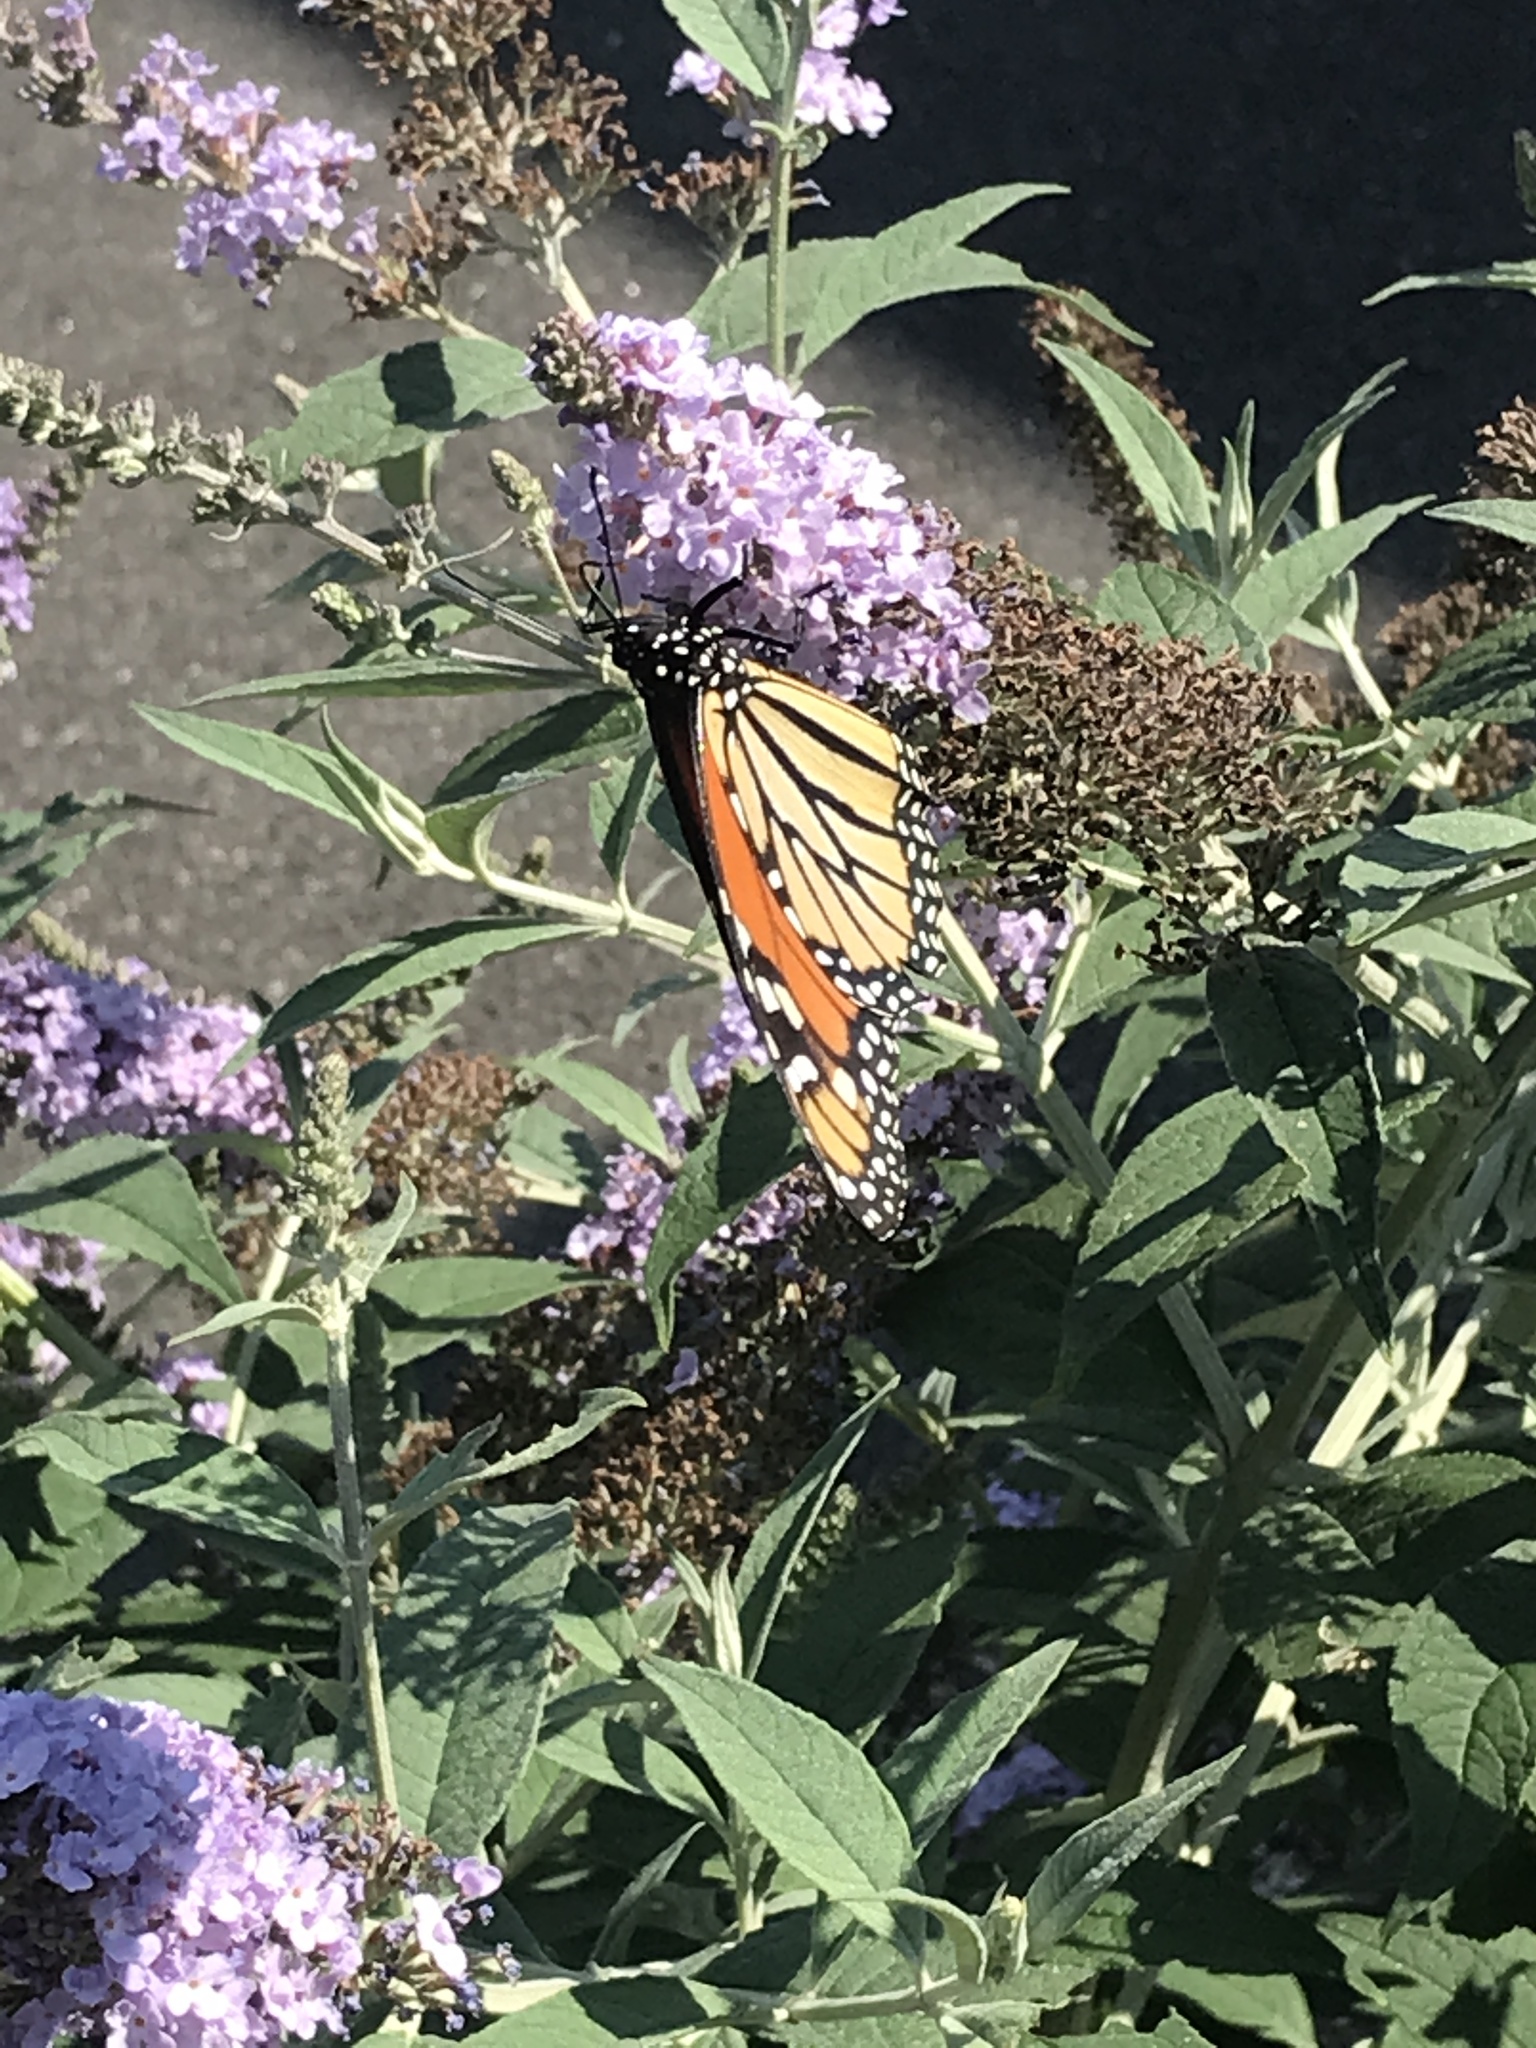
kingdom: Animalia
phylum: Arthropoda
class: Insecta
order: Lepidoptera
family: Nymphalidae
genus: Danaus
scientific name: Danaus plexippus
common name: Monarch
